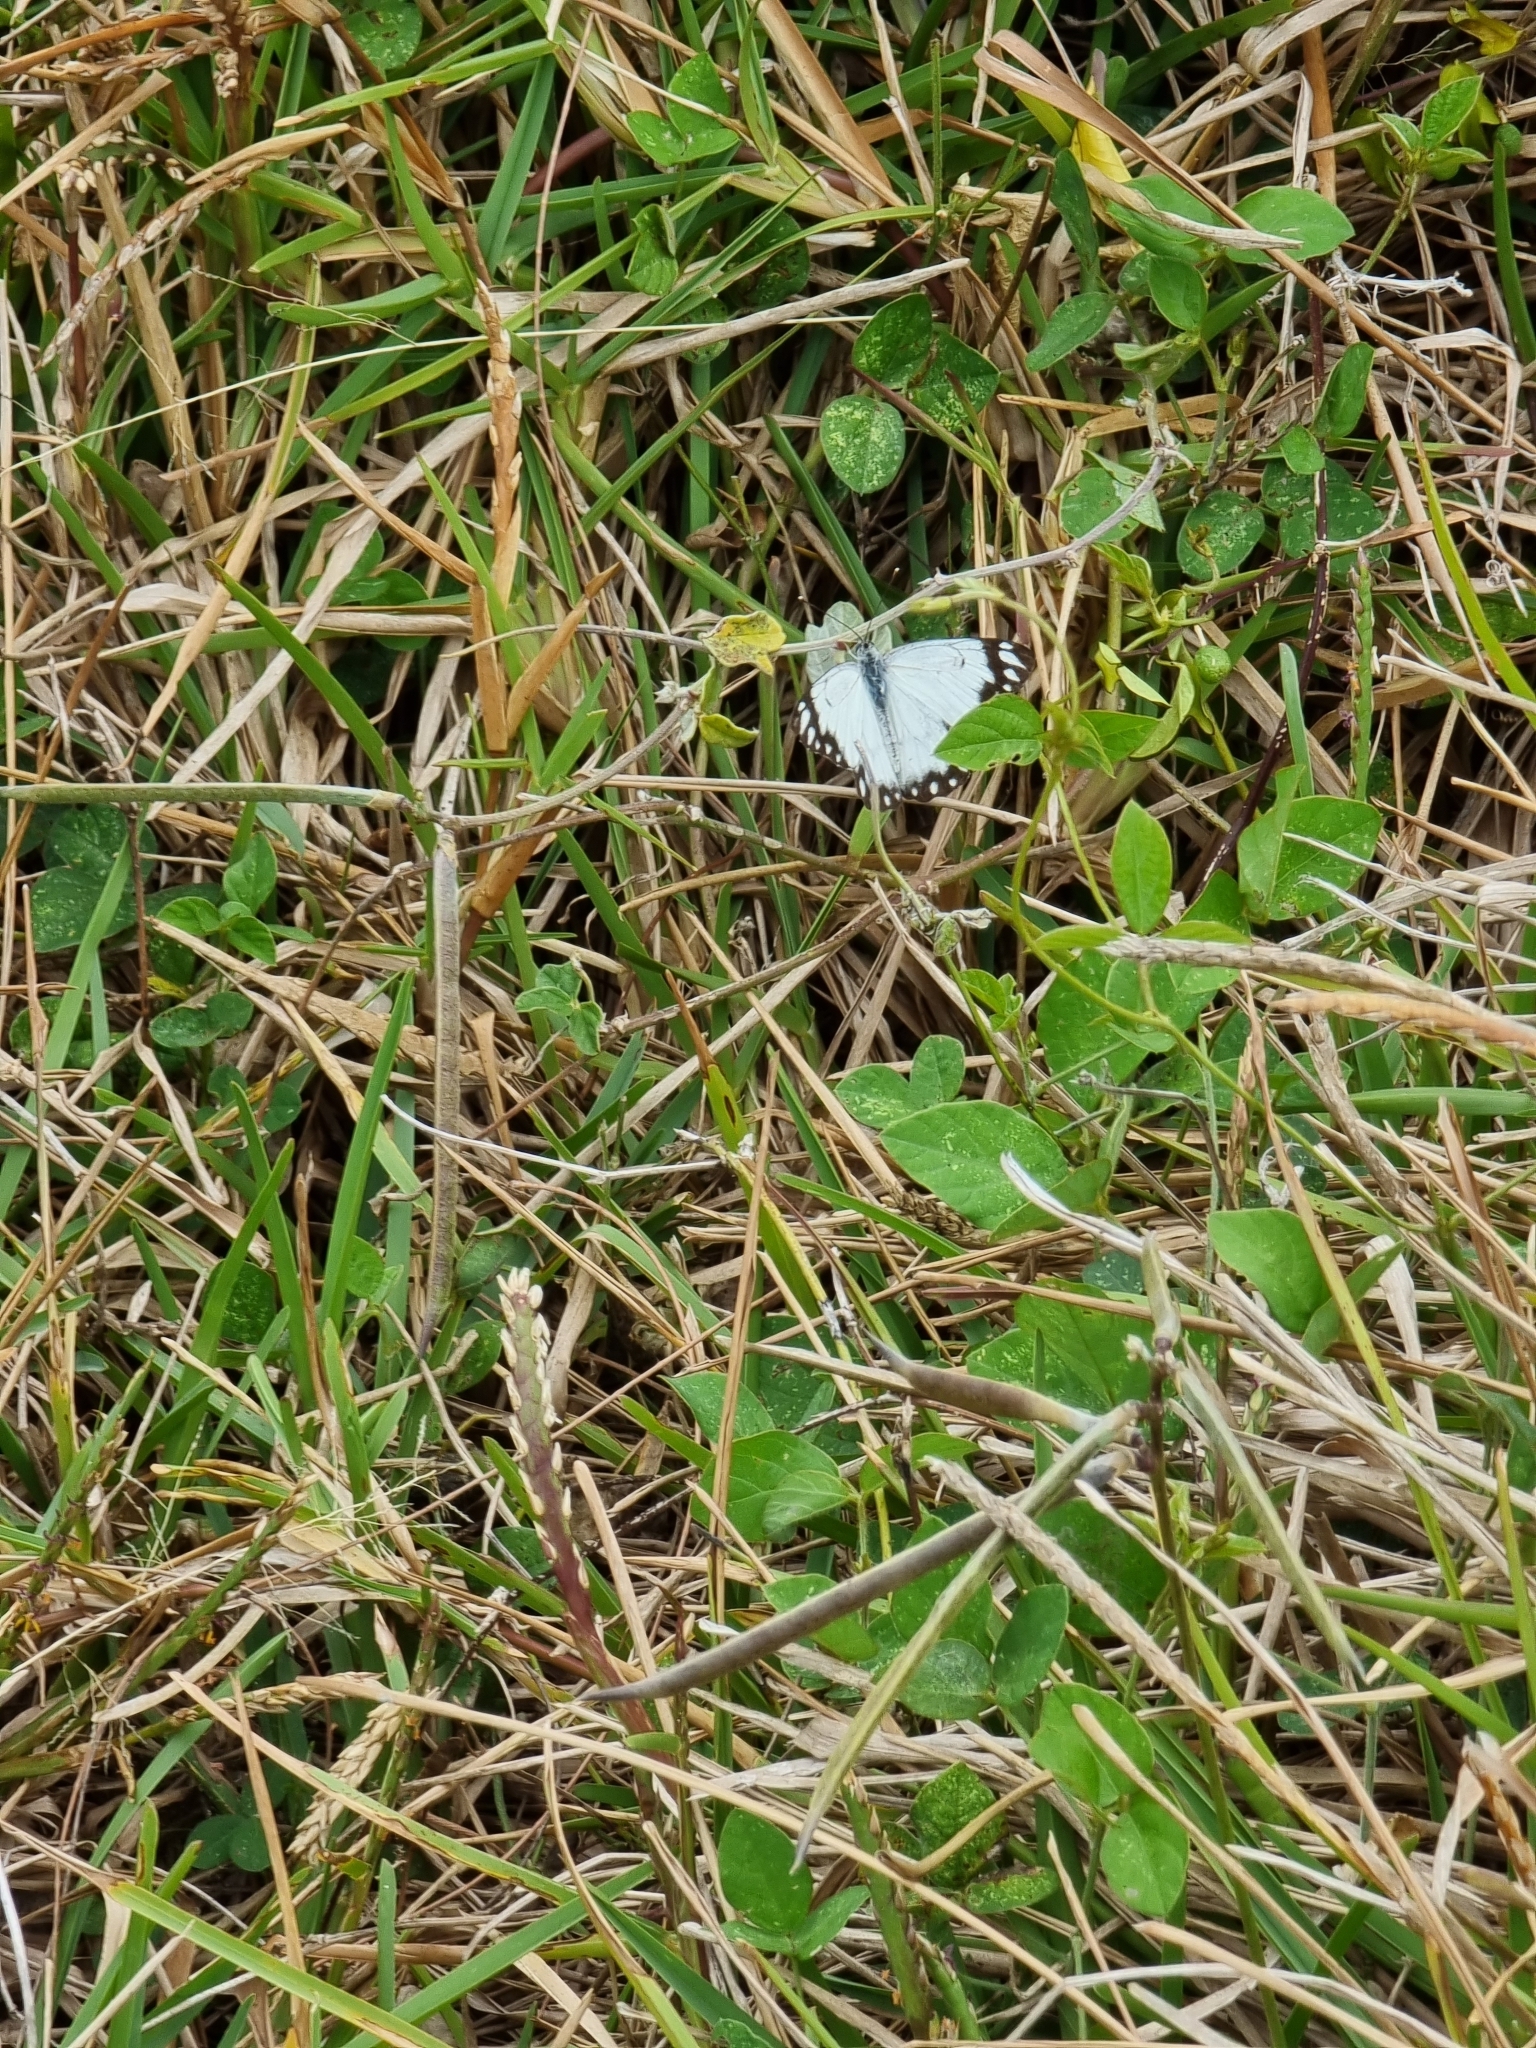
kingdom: Animalia
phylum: Arthropoda
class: Insecta
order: Lepidoptera
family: Pieridae
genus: Belenois
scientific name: Belenois java
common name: Caper white
